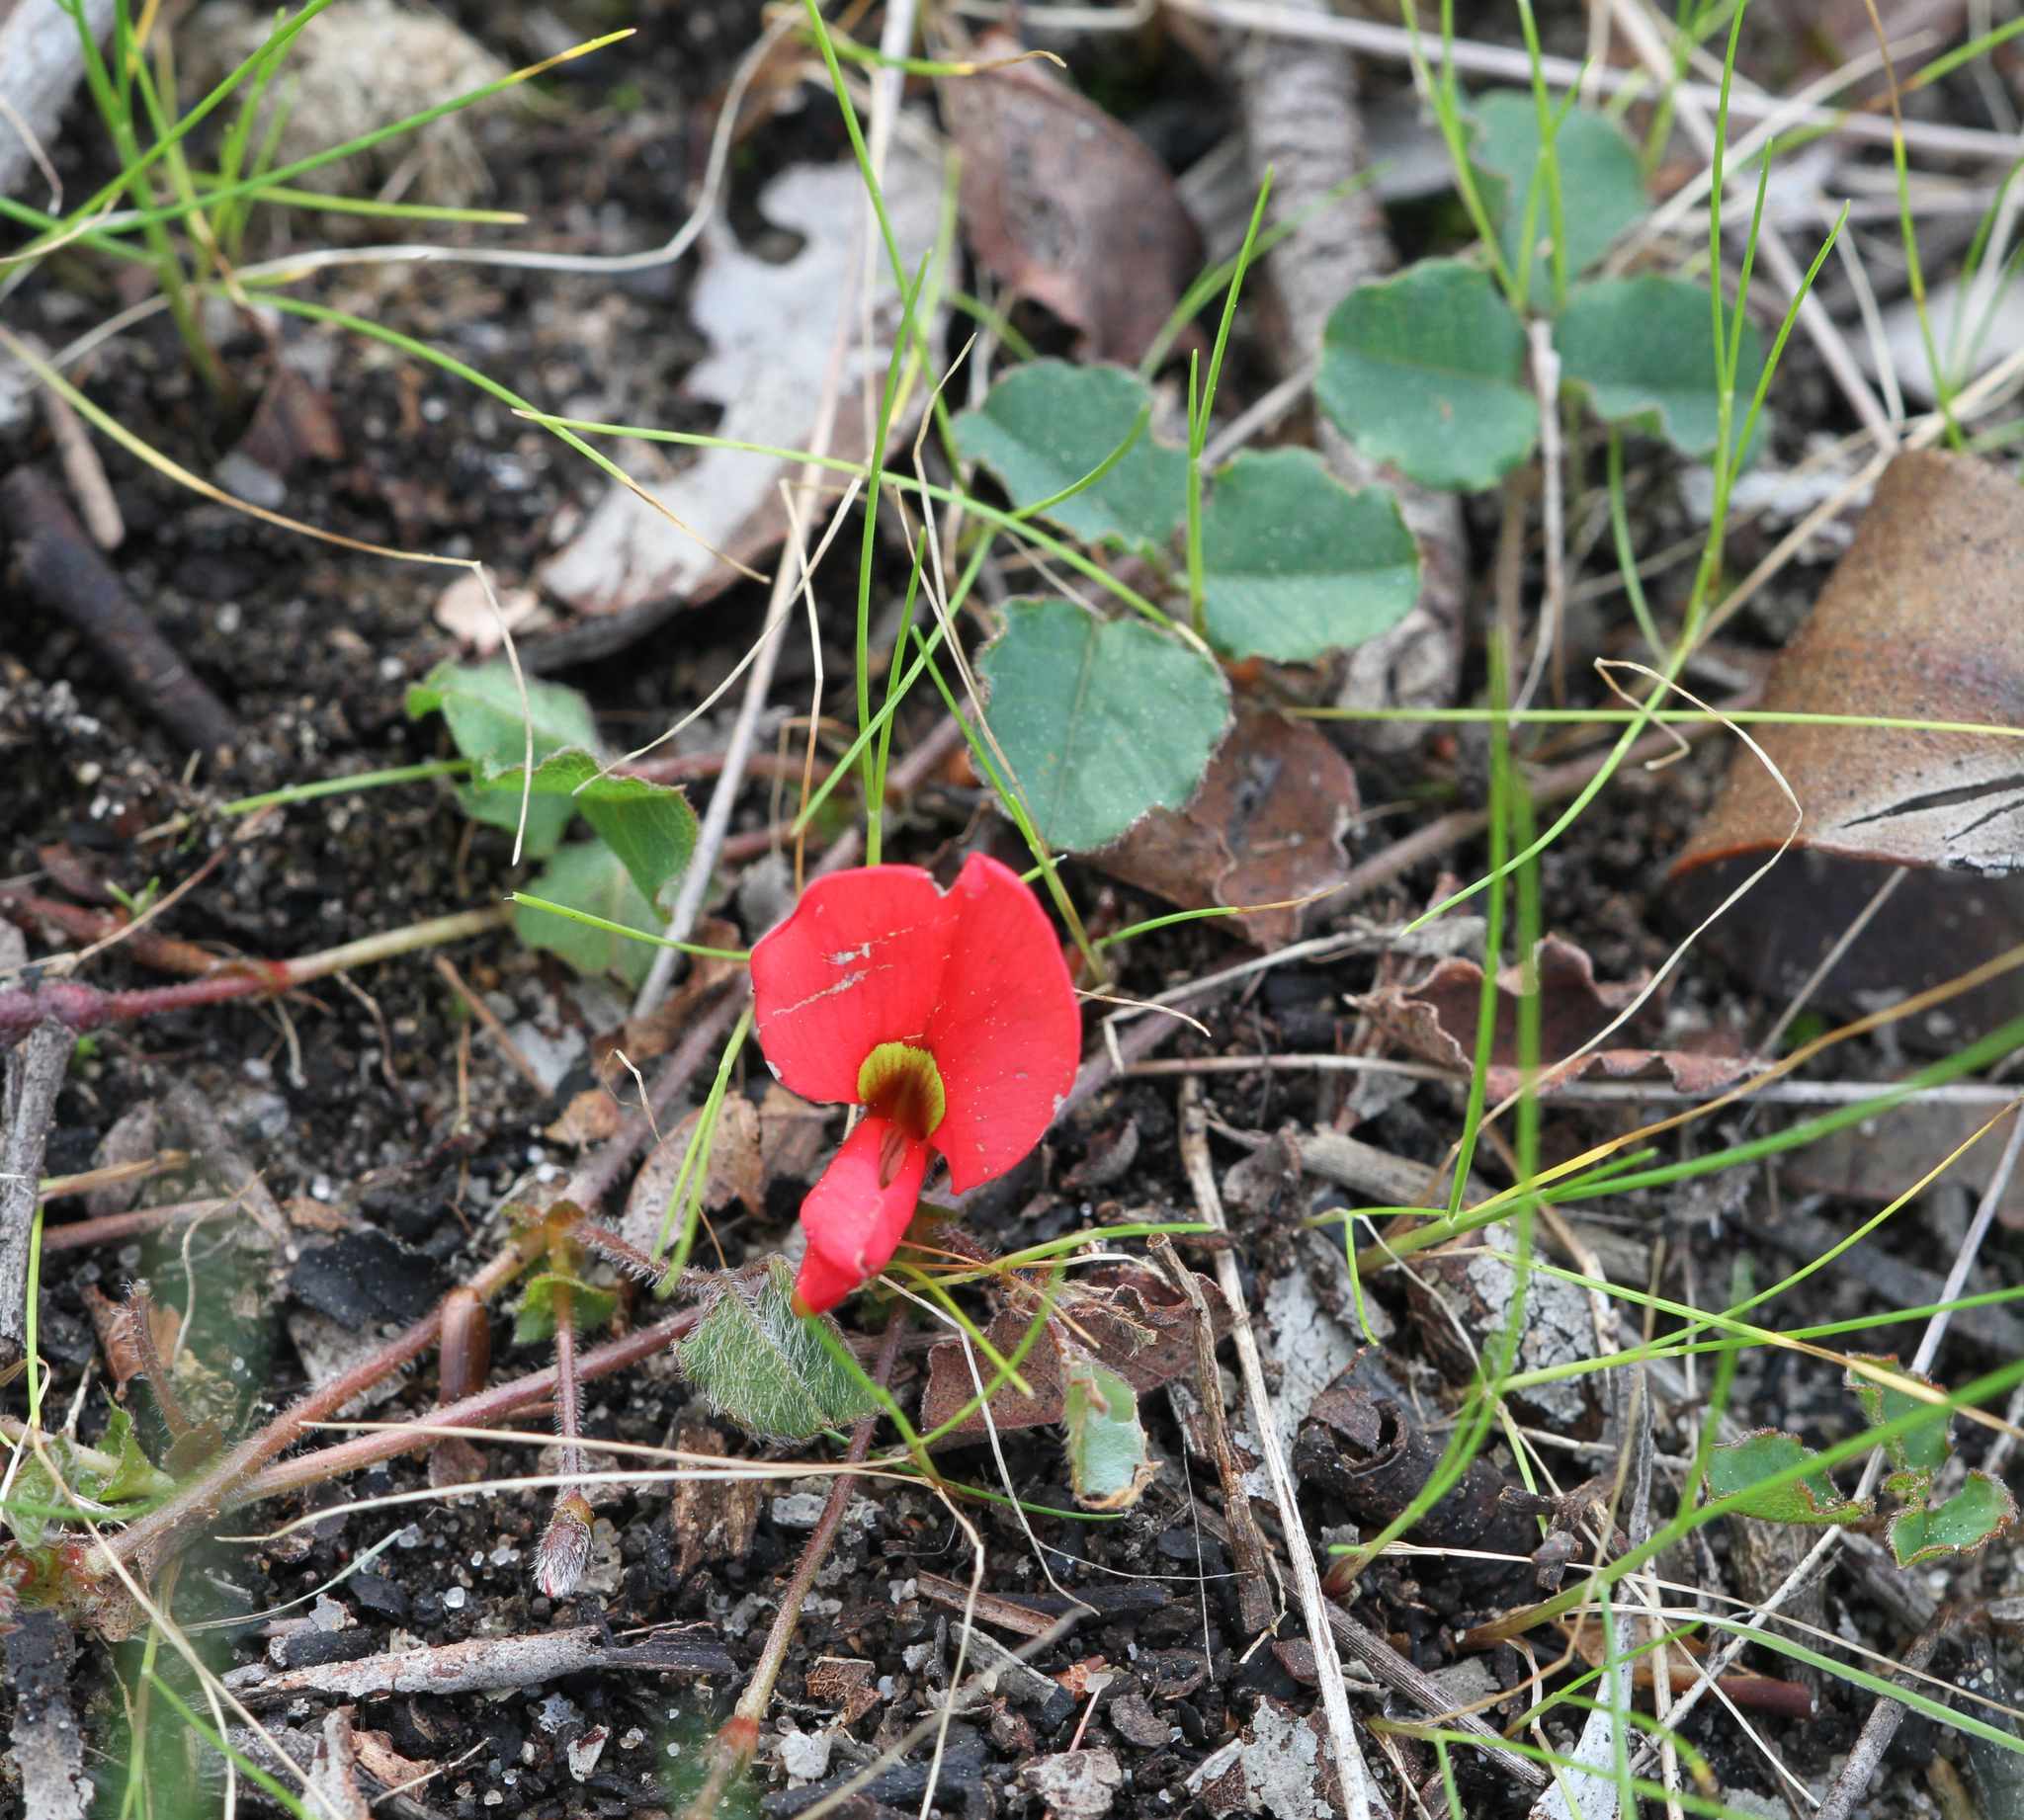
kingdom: Plantae
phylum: Tracheophyta
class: Magnoliopsida
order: Fabales
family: Fabaceae
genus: Kennedia
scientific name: Kennedia prostrata
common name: Running-postman
